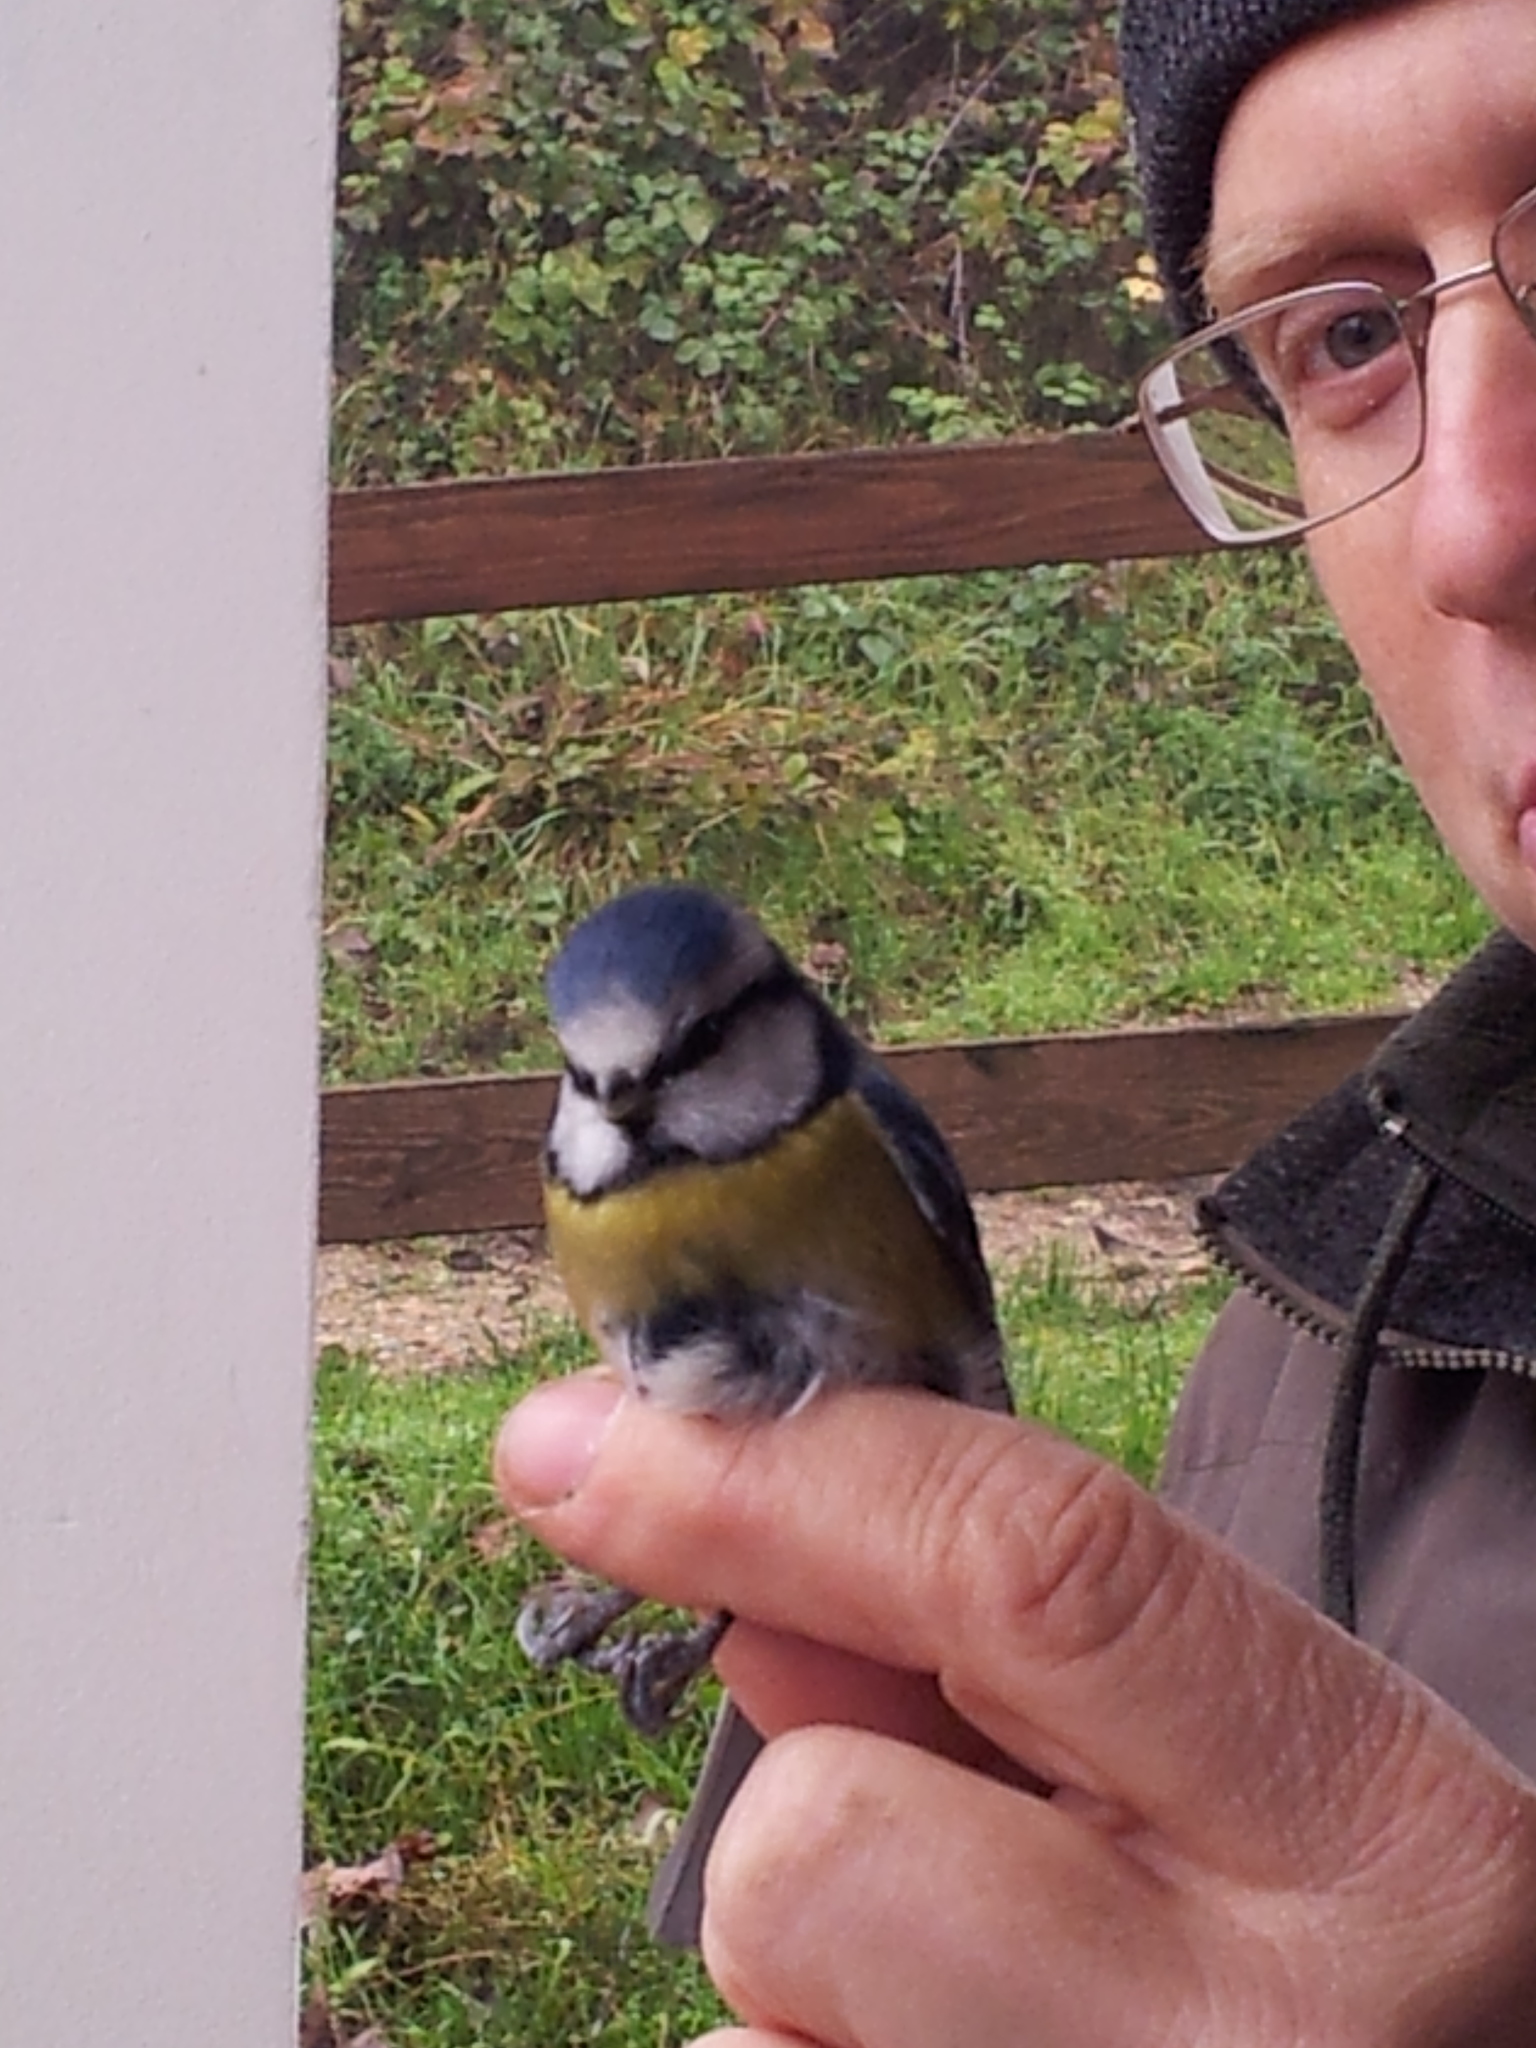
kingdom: Animalia
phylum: Chordata
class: Aves
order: Passeriformes
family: Paridae
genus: Cyanistes
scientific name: Cyanistes caeruleus
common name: Eurasian blue tit
